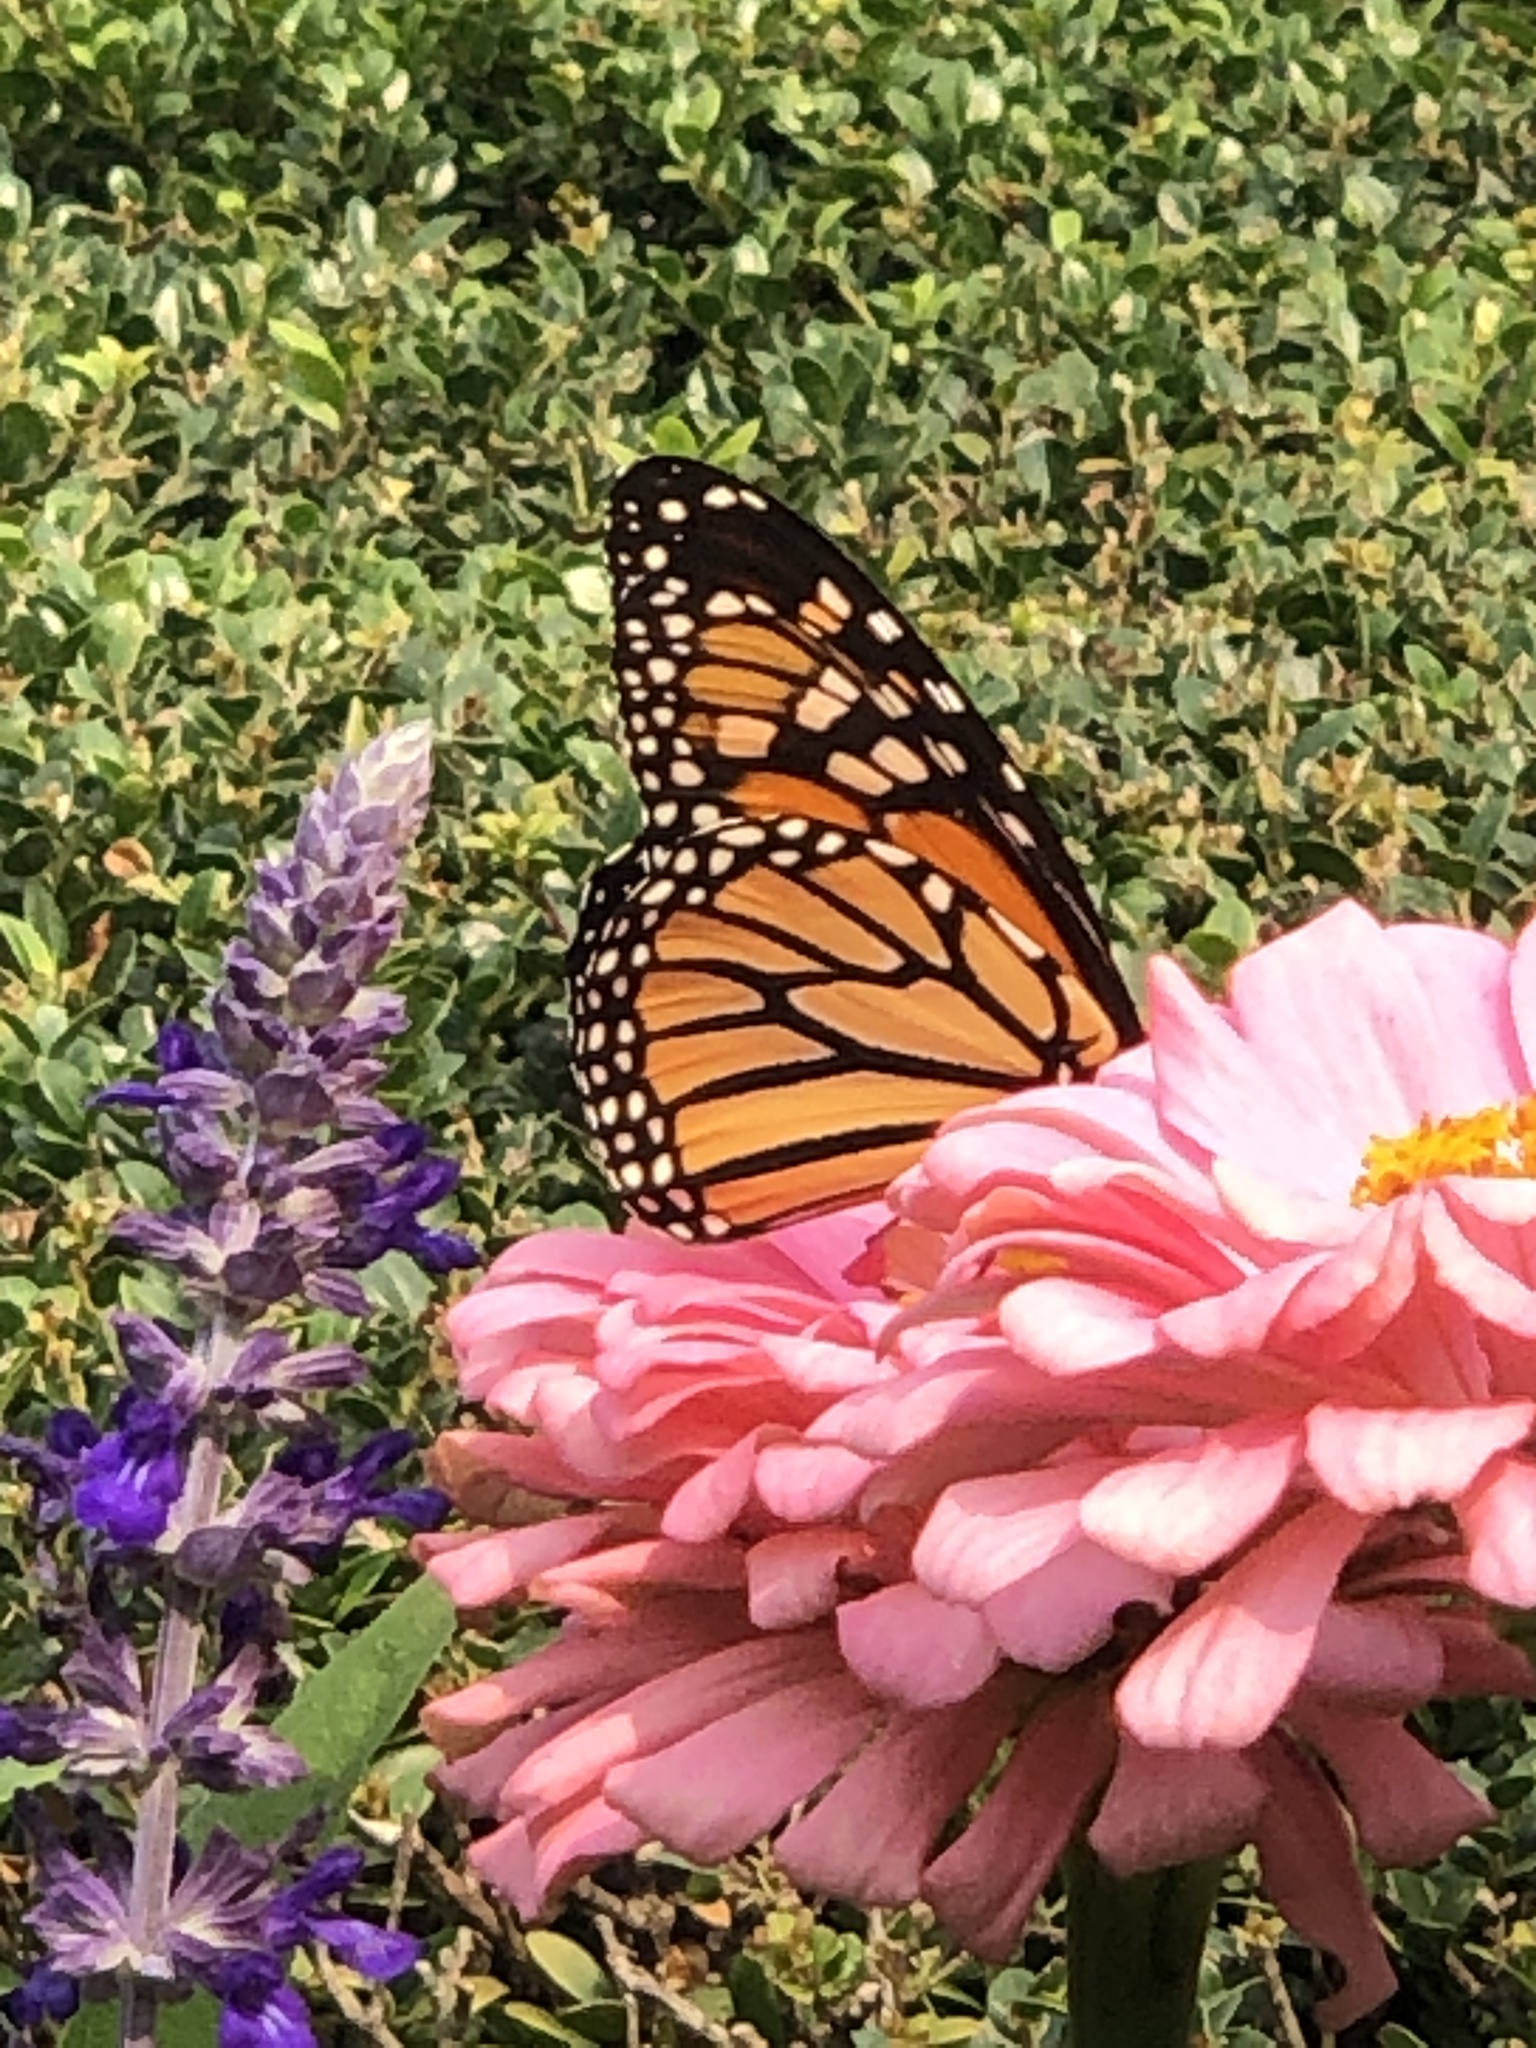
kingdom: Animalia
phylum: Arthropoda
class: Insecta
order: Lepidoptera
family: Nymphalidae
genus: Danaus
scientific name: Danaus plexippus
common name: Monarch
